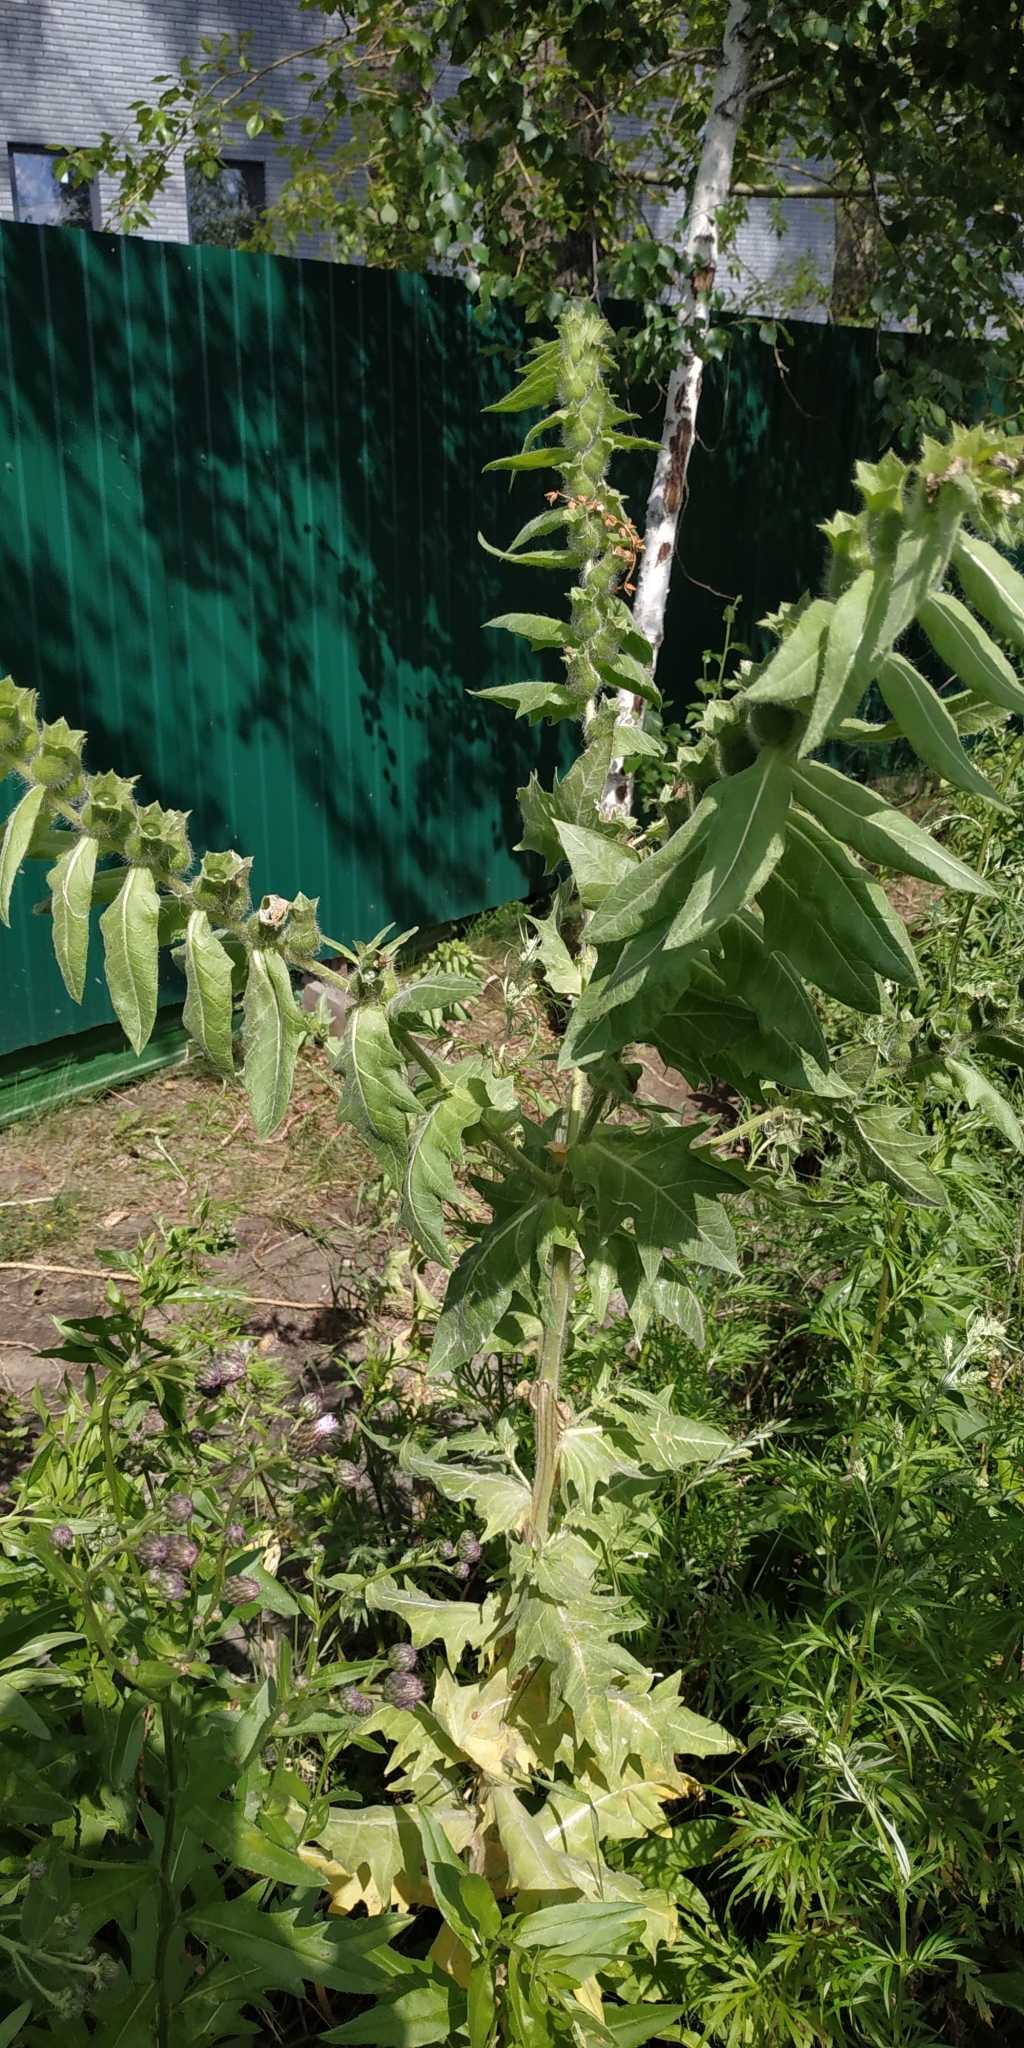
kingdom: Plantae
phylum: Tracheophyta
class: Magnoliopsida
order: Solanales
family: Solanaceae
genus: Hyoscyamus
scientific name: Hyoscyamus niger
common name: Henbane
